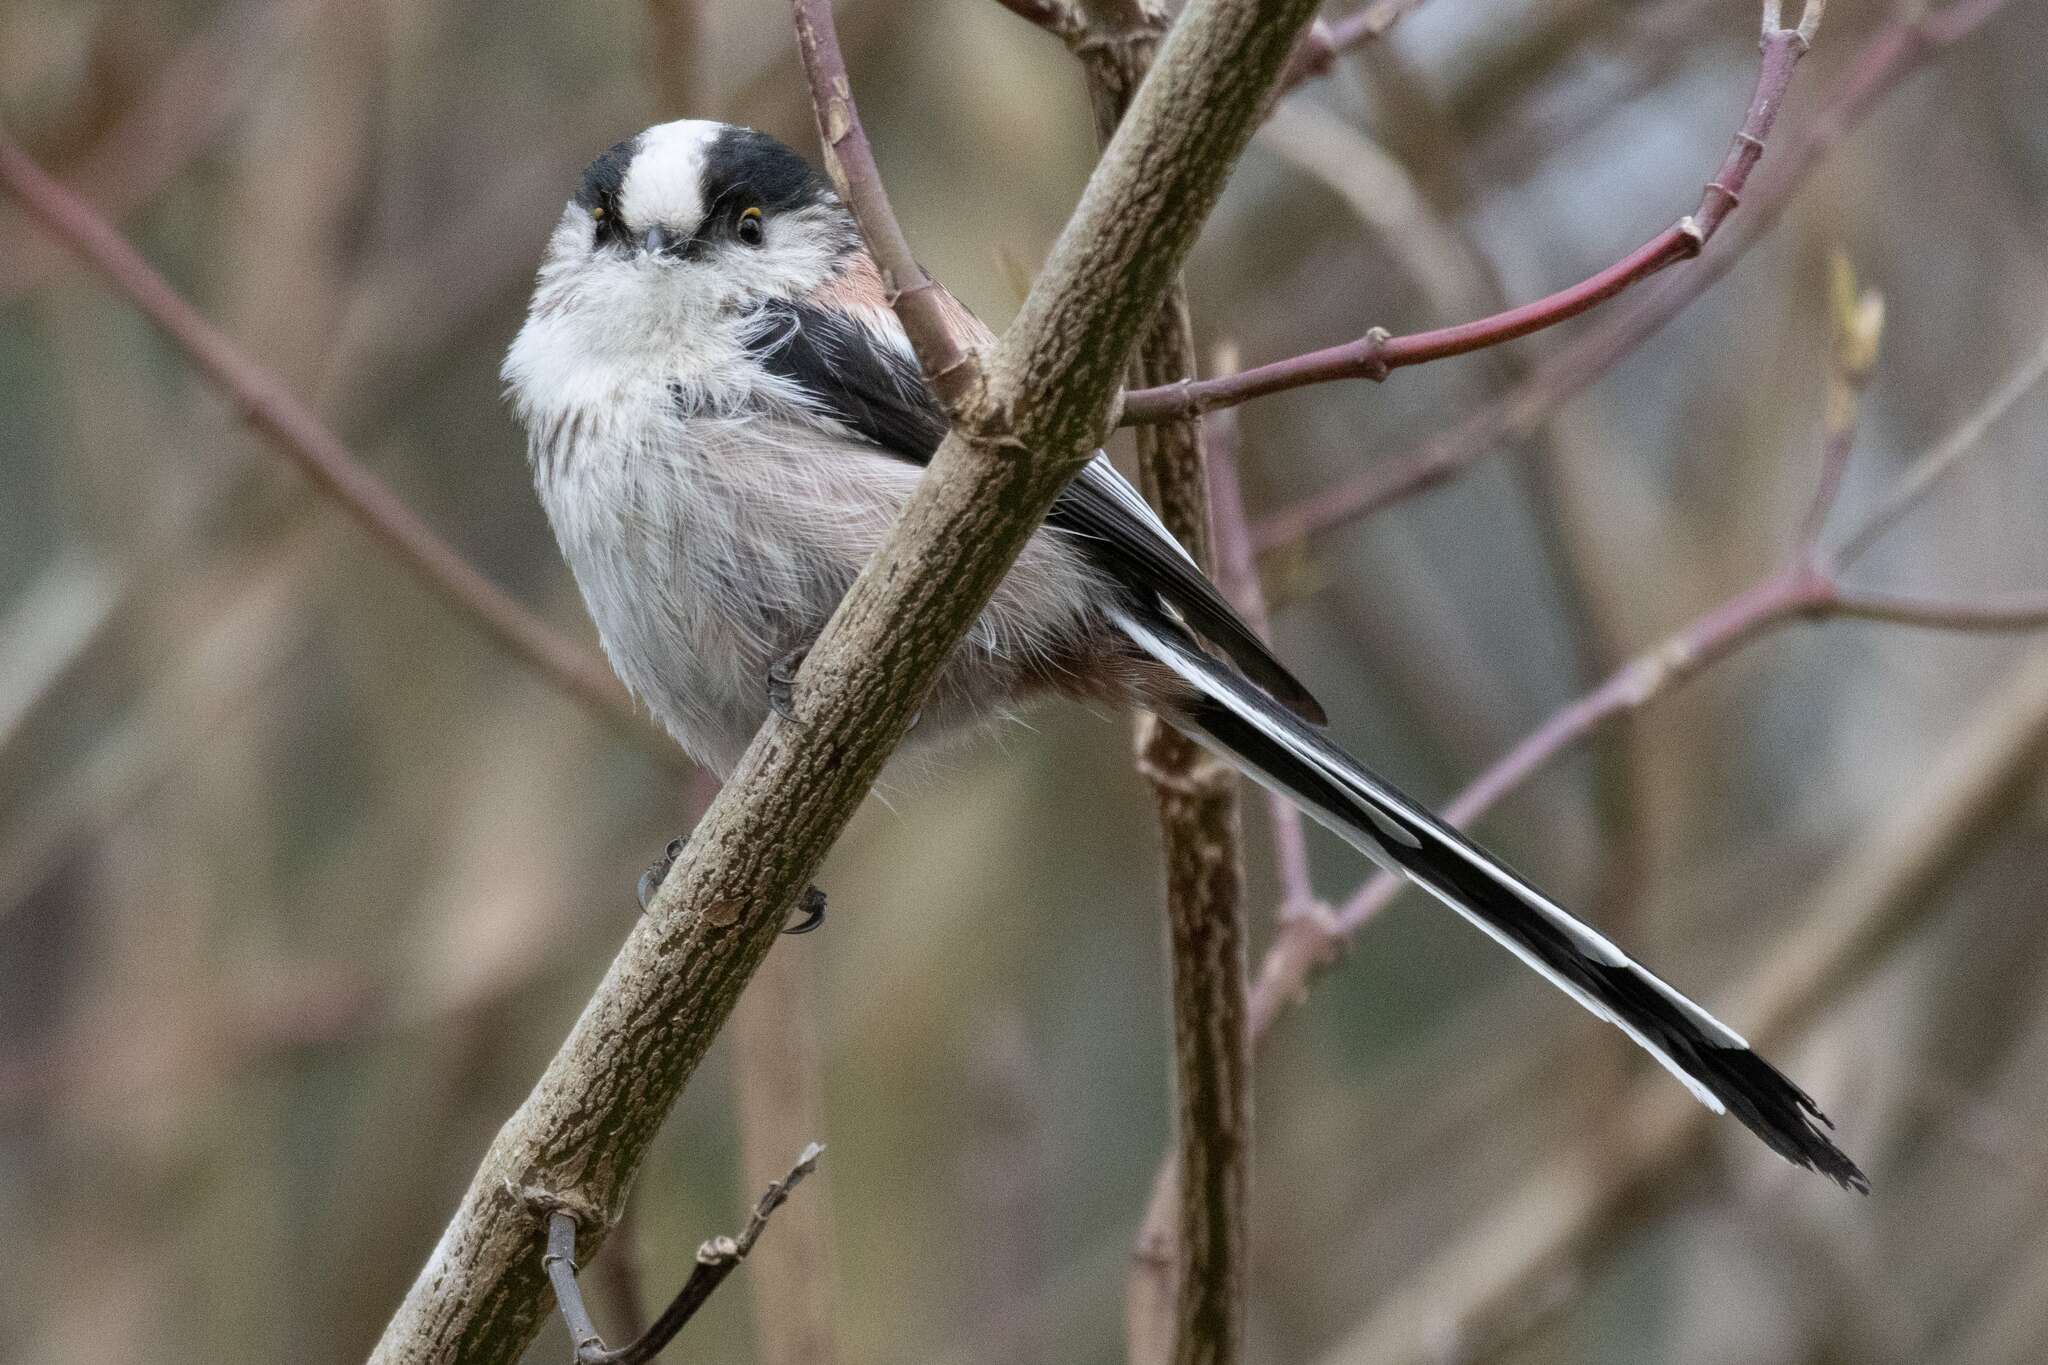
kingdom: Animalia
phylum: Chordata
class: Aves
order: Passeriformes
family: Aegithalidae
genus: Aegithalos
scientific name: Aegithalos caudatus
